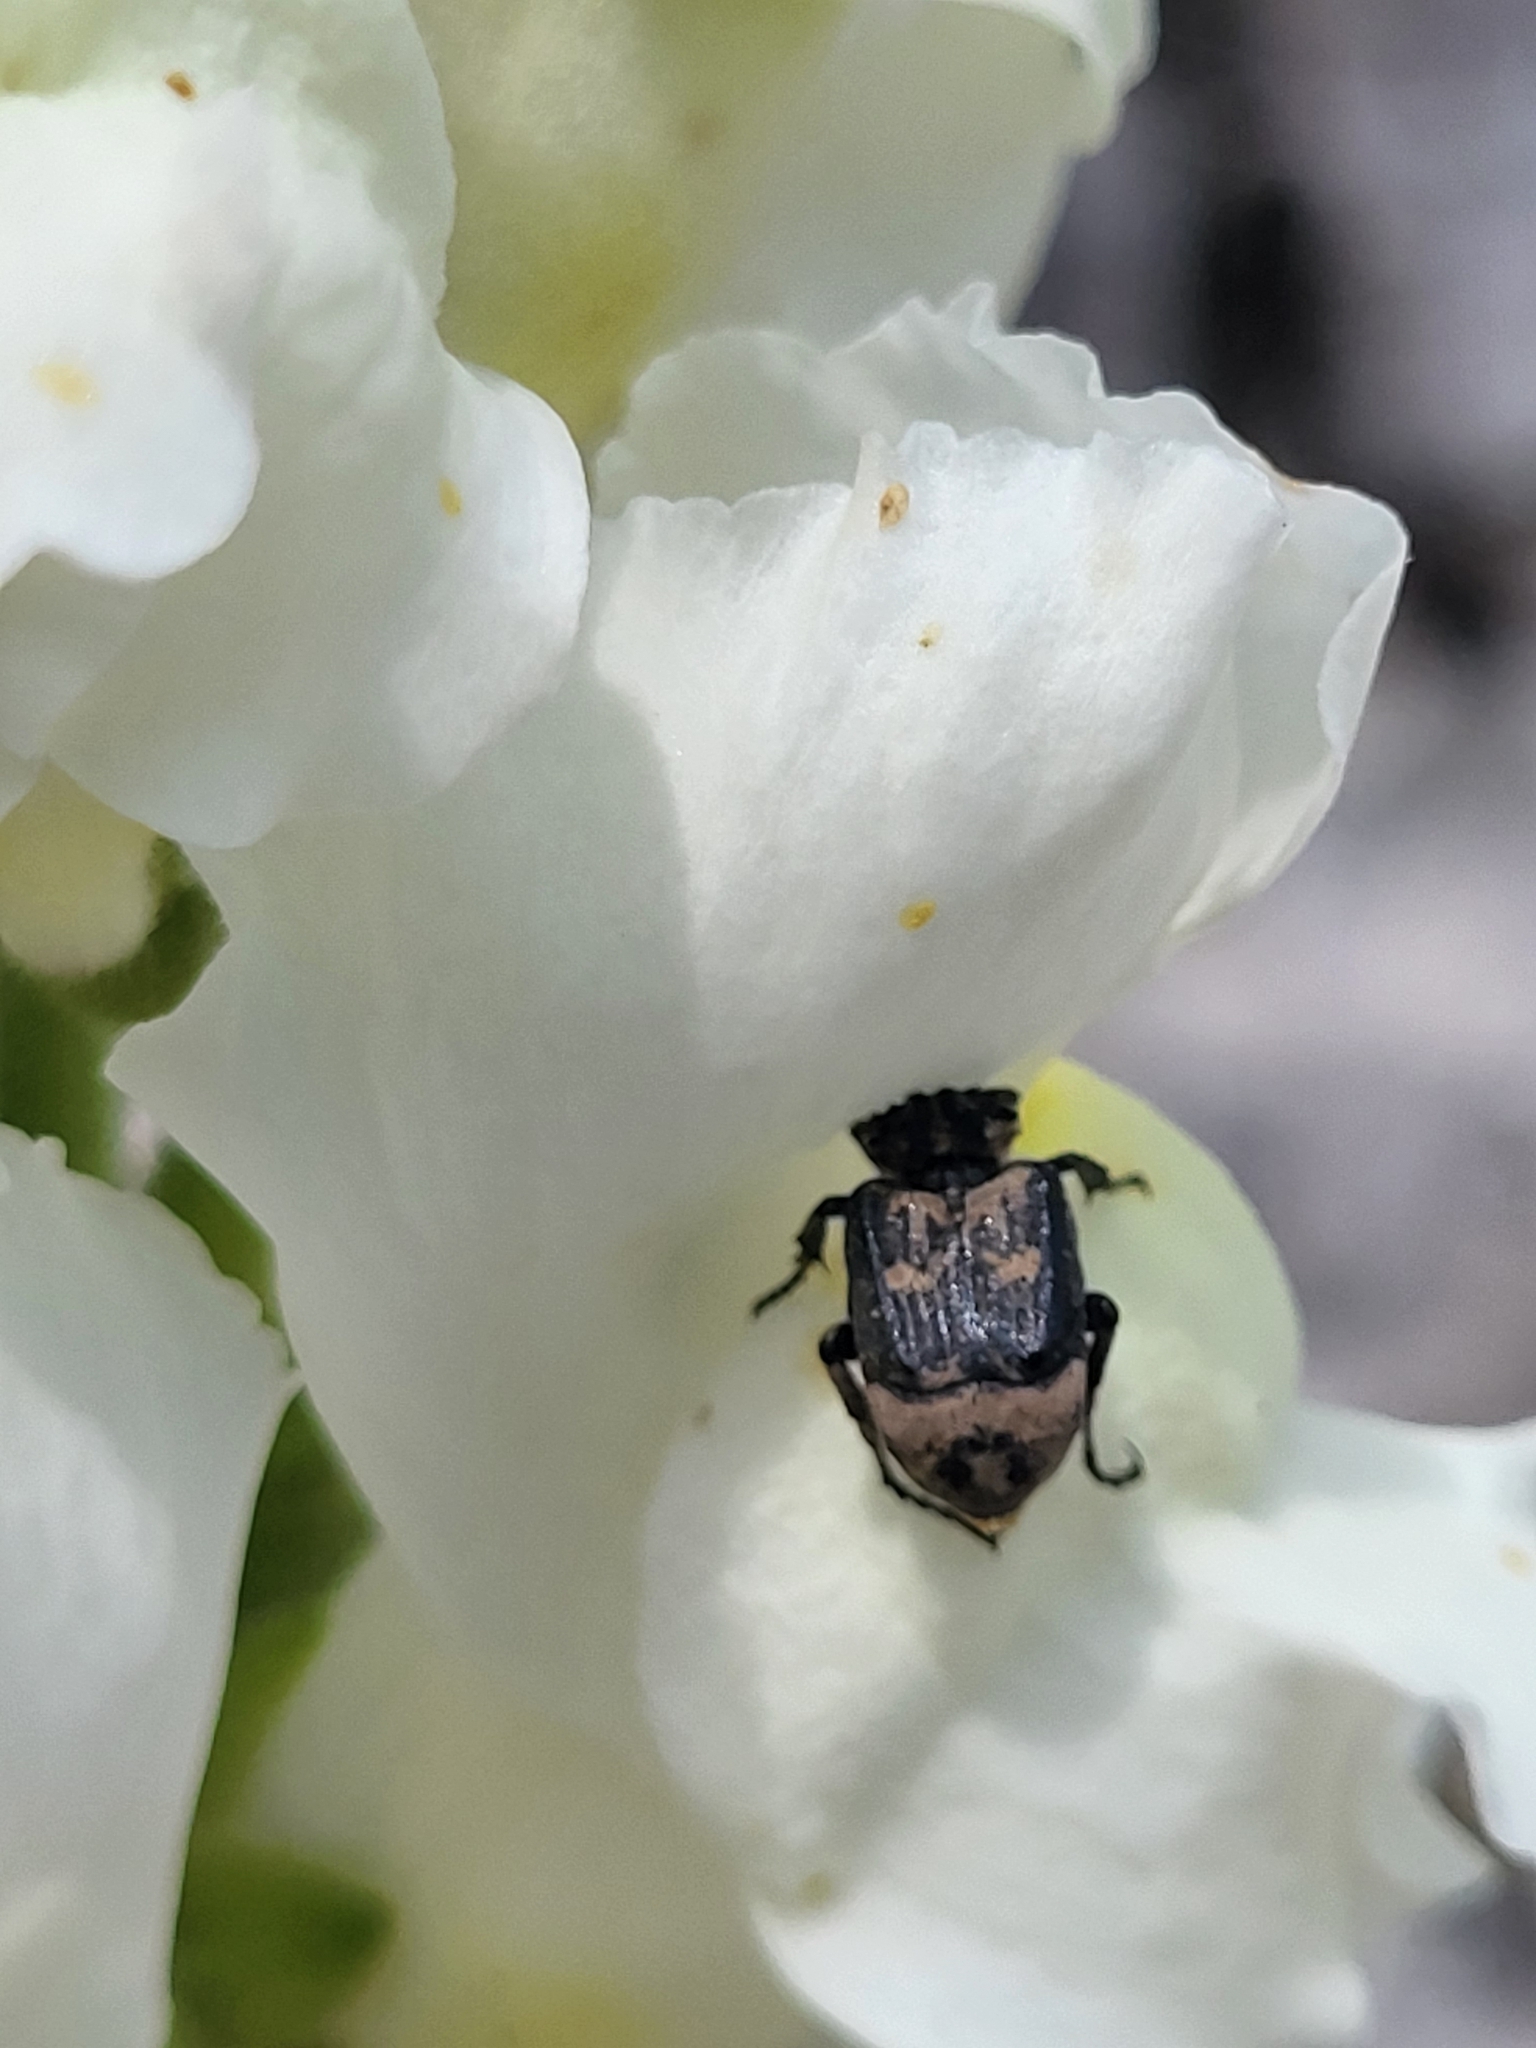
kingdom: Animalia
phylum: Arthropoda
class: Insecta
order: Coleoptera
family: Scarabaeidae
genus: Valgus
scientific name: Valgus hemipterus
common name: Bug flower chafer
